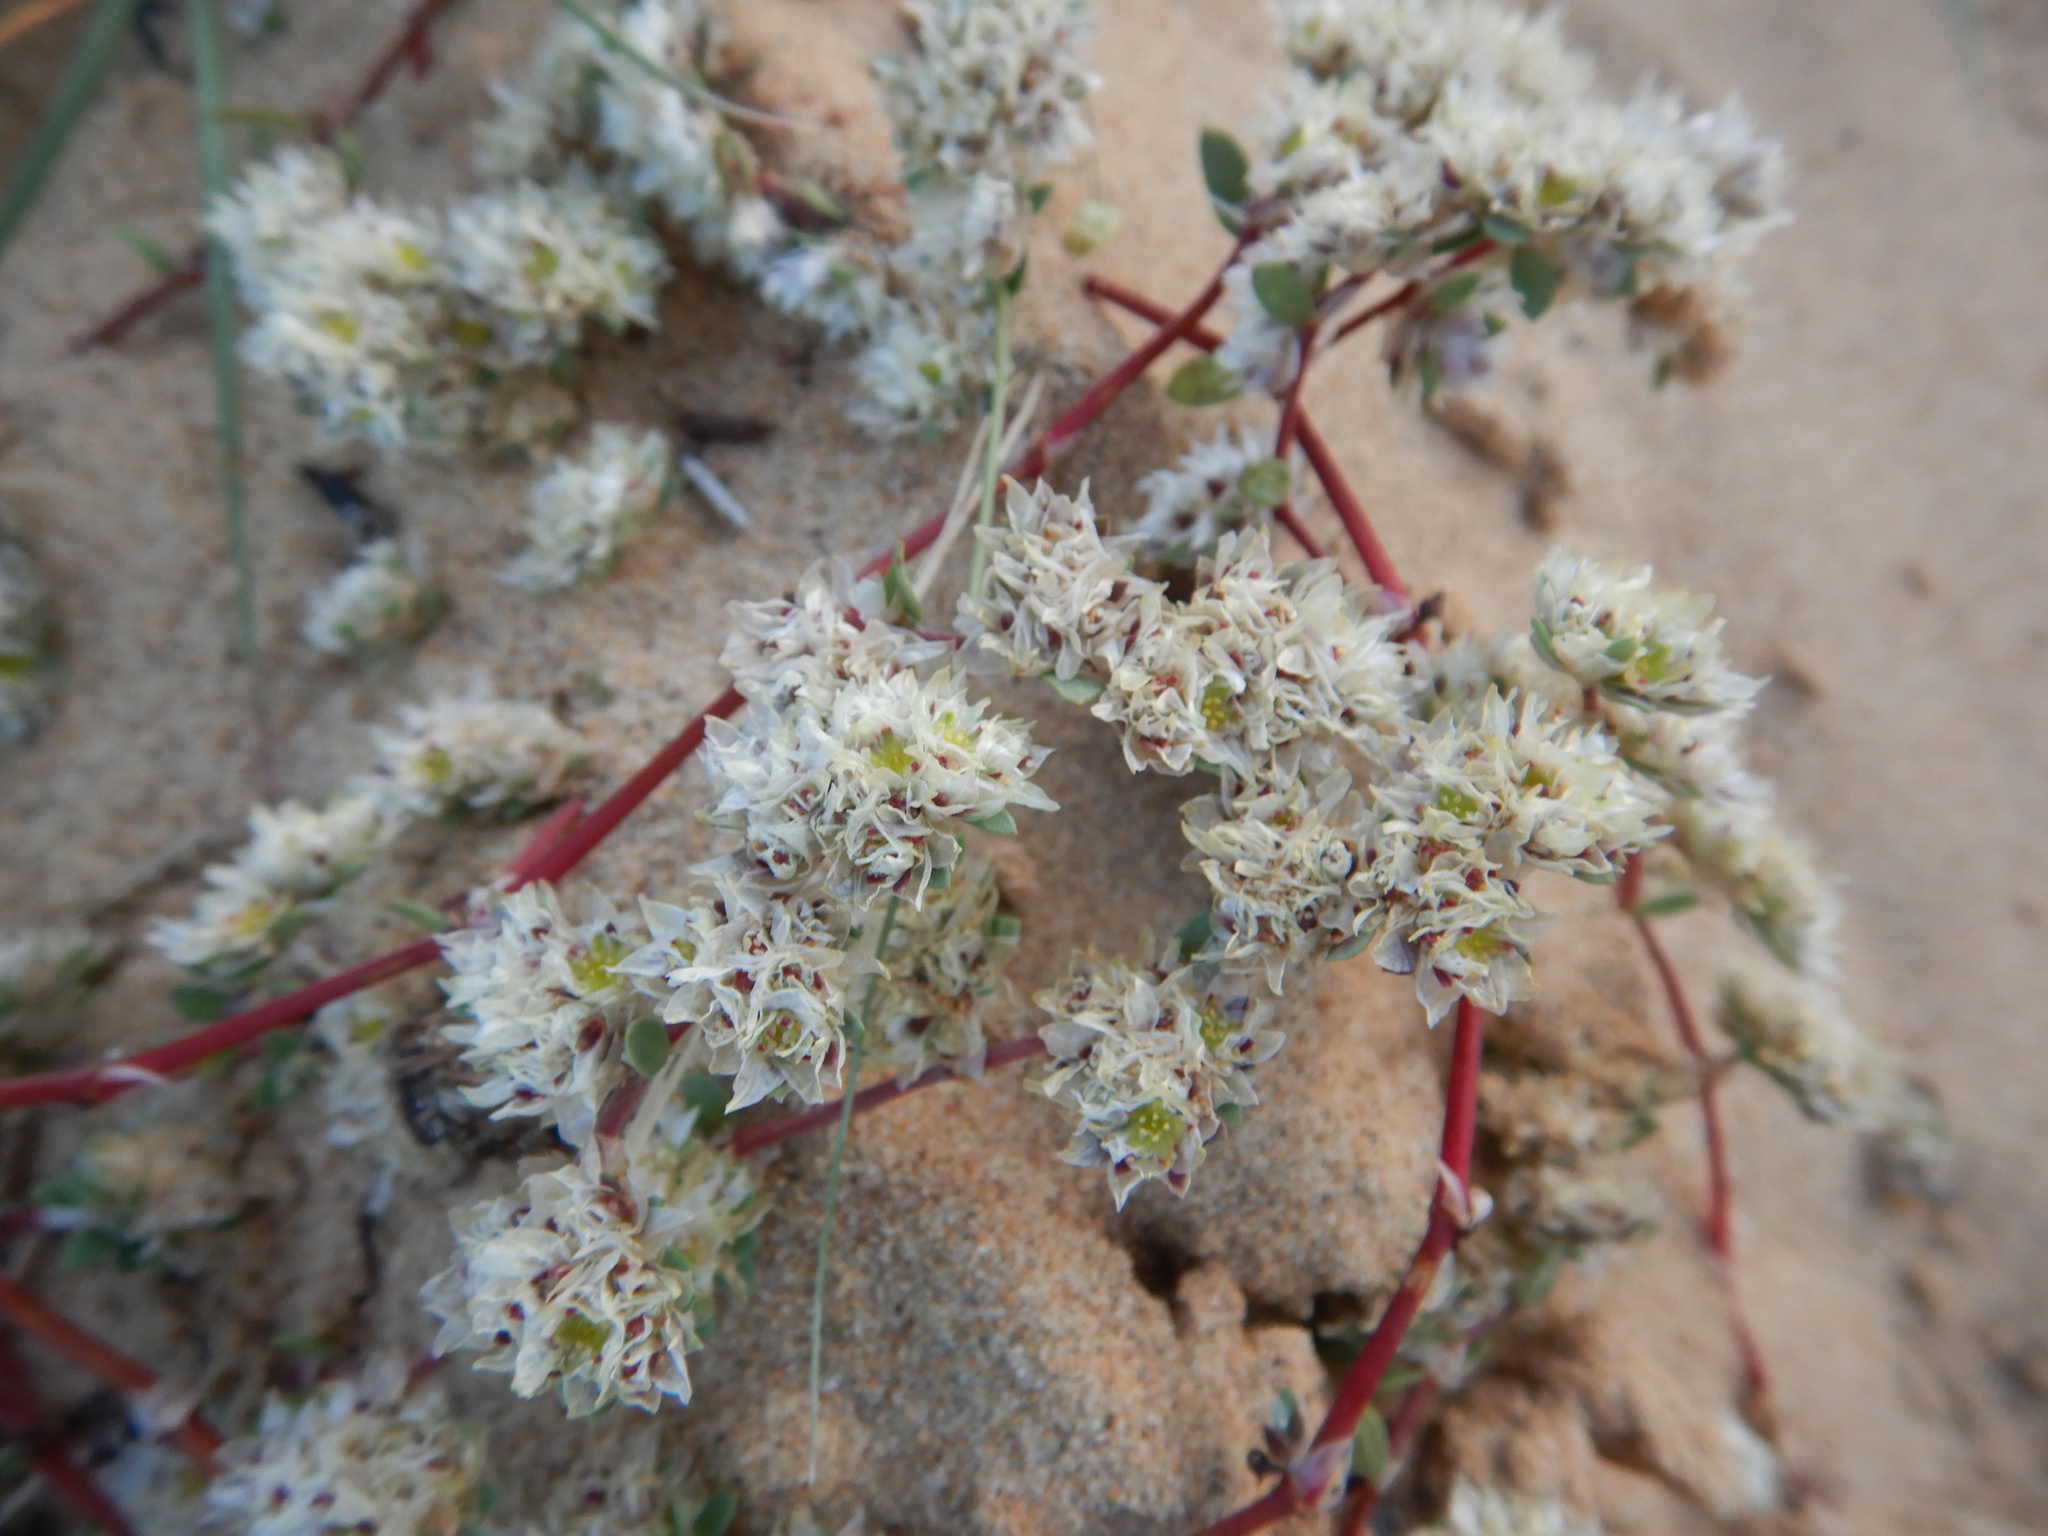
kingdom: Plantae
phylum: Tracheophyta
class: Magnoliopsida
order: Caryophyllales
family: Caryophyllaceae
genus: Paronychia
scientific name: Paronychia argentea
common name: Silver nailroot
